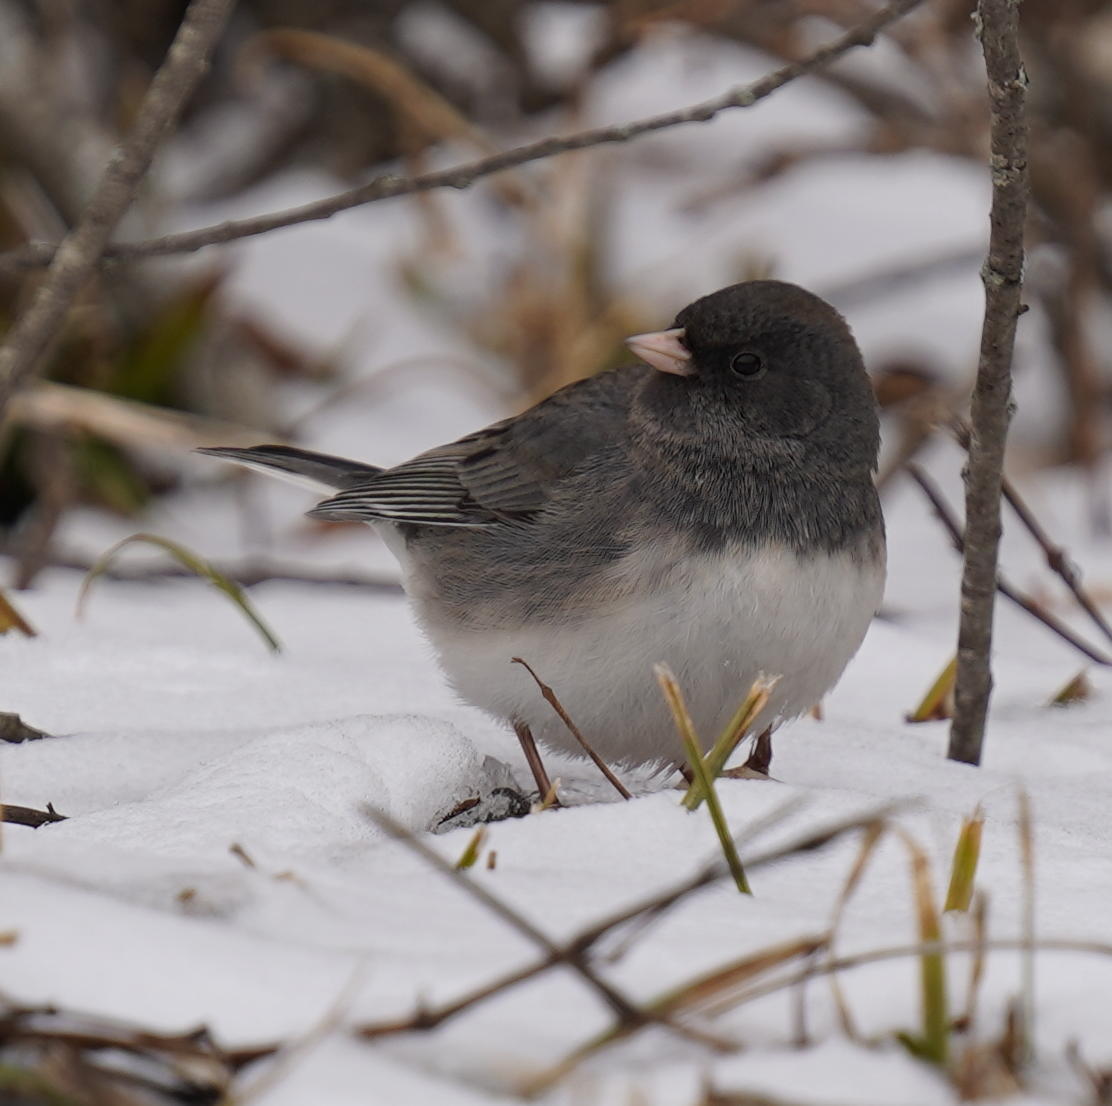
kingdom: Animalia
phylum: Chordata
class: Aves
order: Passeriformes
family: Passerellidae
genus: Junco
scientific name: Junco hyemalis
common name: Dark-eyed junco
